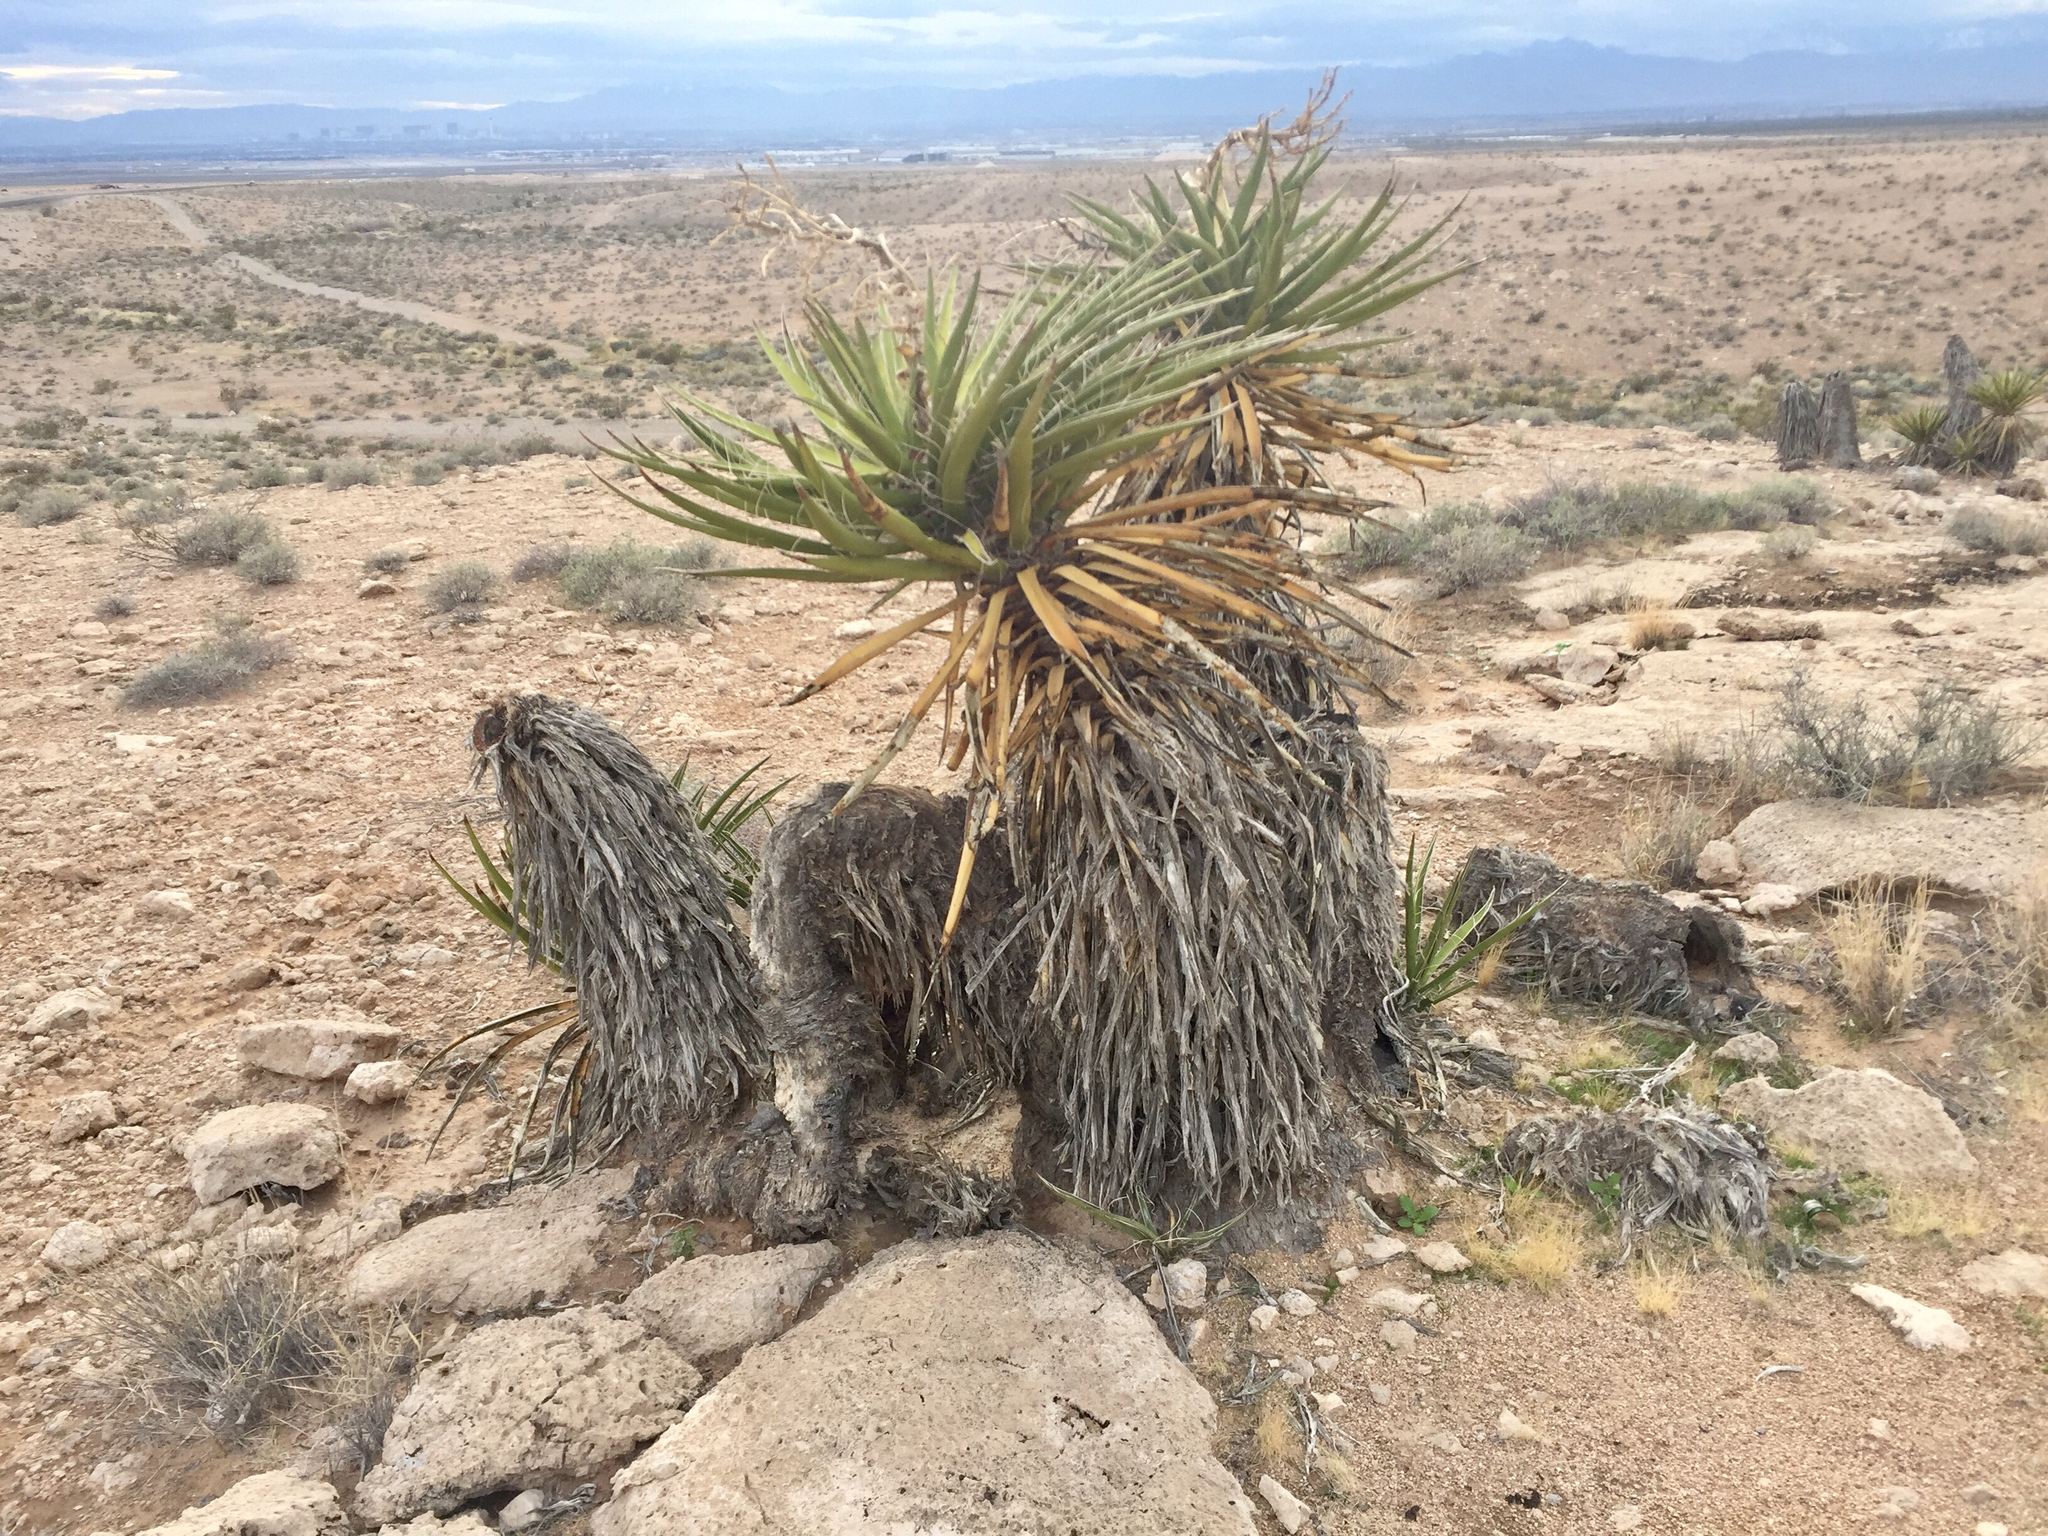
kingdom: Plantae
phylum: Tracheophyta
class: Liliopsida
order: Asparagales
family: Asparagaceae
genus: Yucca
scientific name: Yucca schidigera
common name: Mojave yucca
